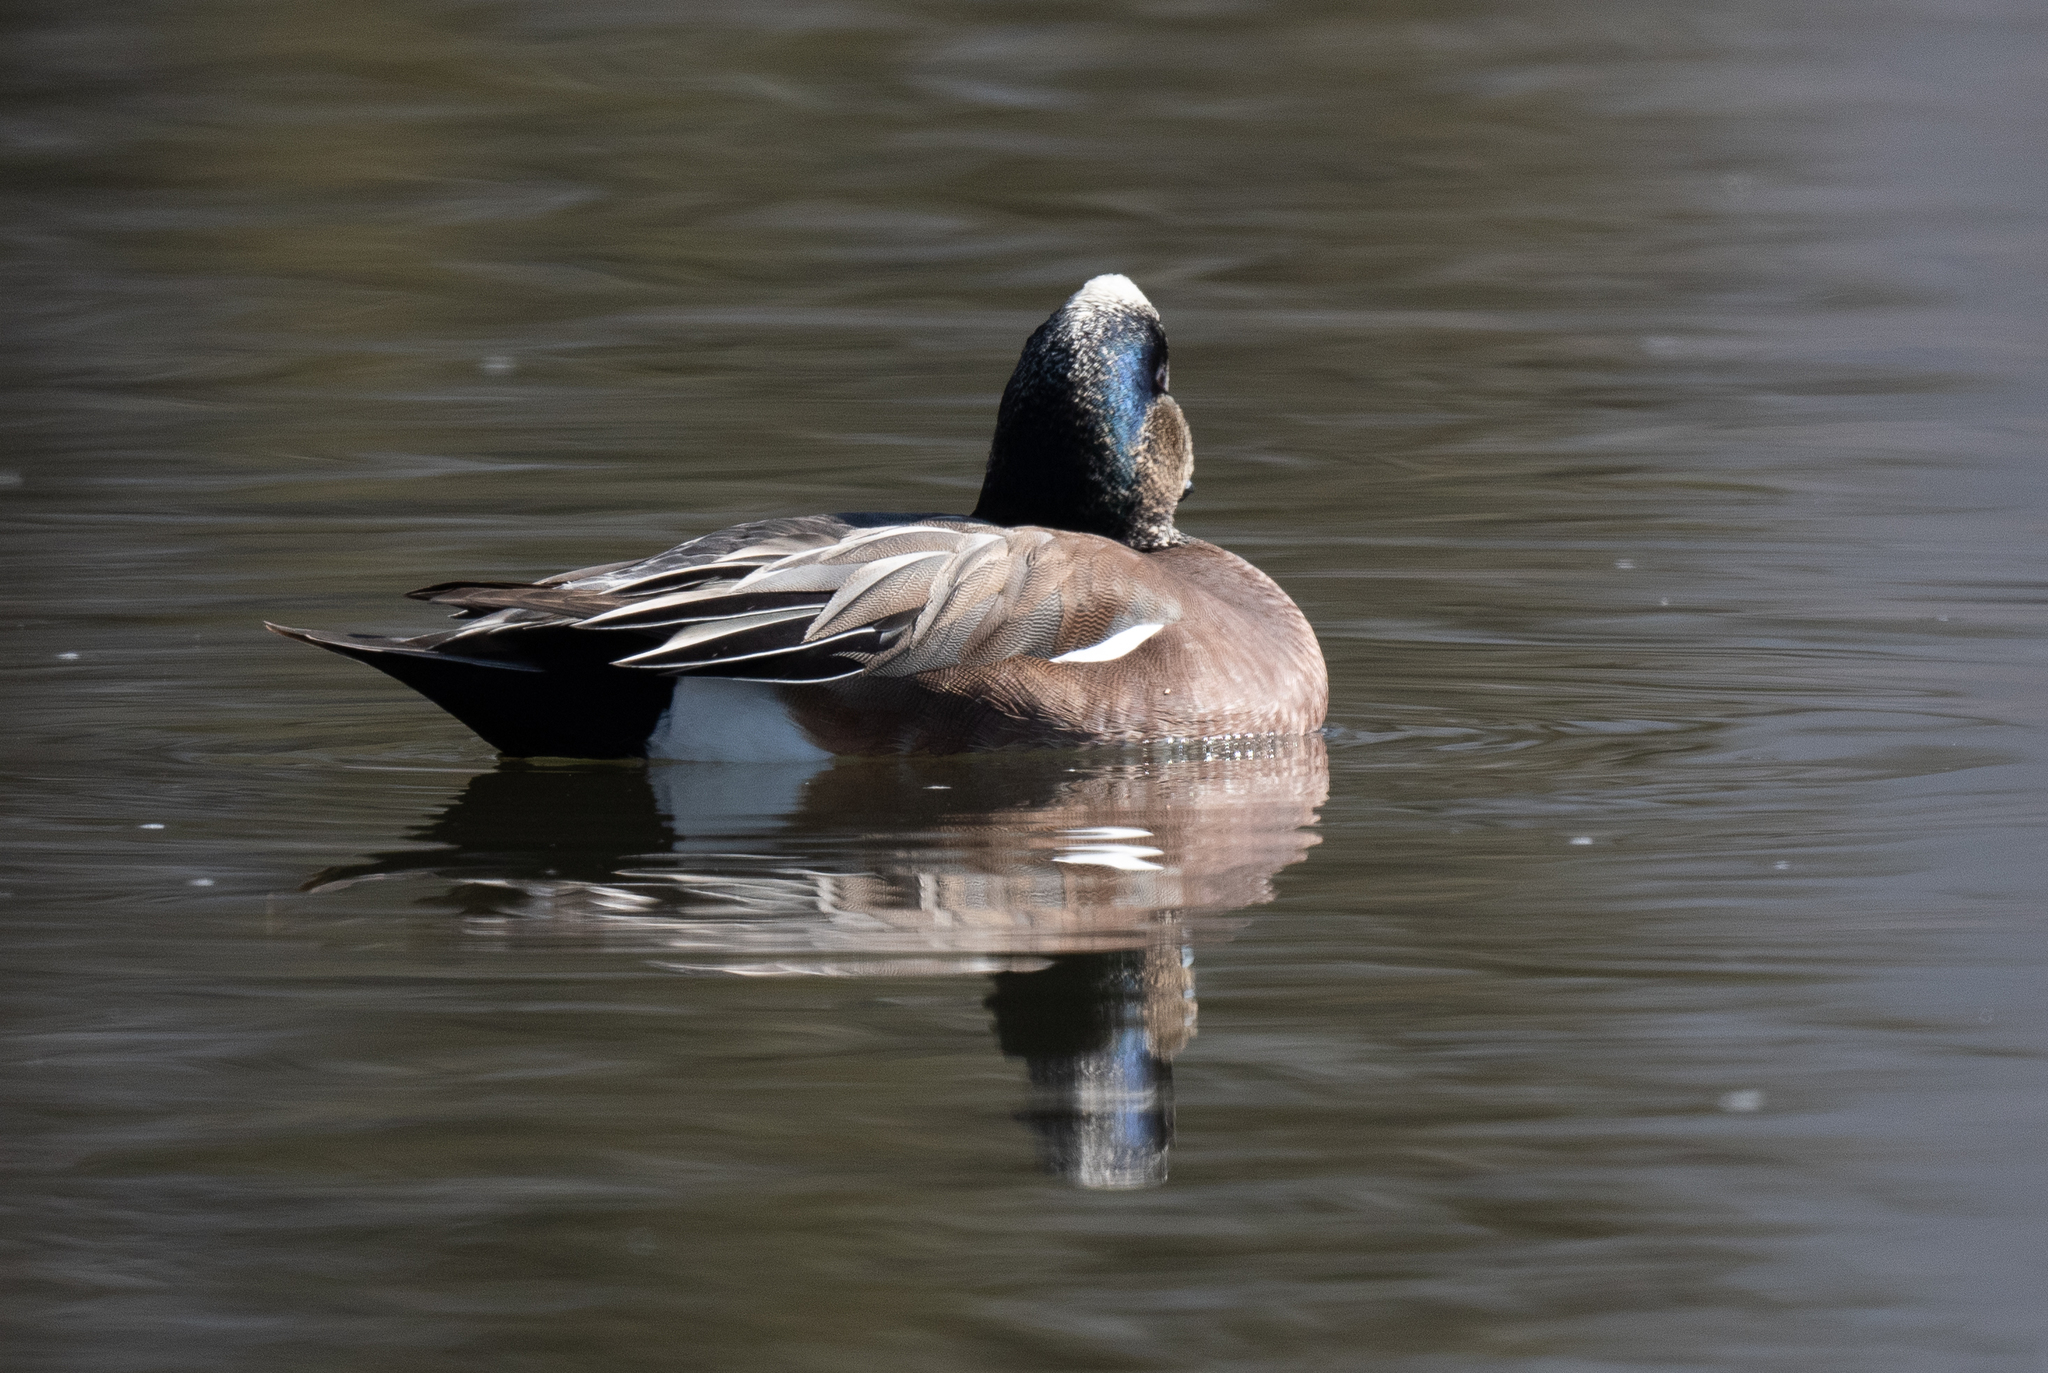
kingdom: Animalia
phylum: Chordata
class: Aves
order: Anseriformes
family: Anatidae
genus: Mareca
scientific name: Mareca americana
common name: American wigeon
